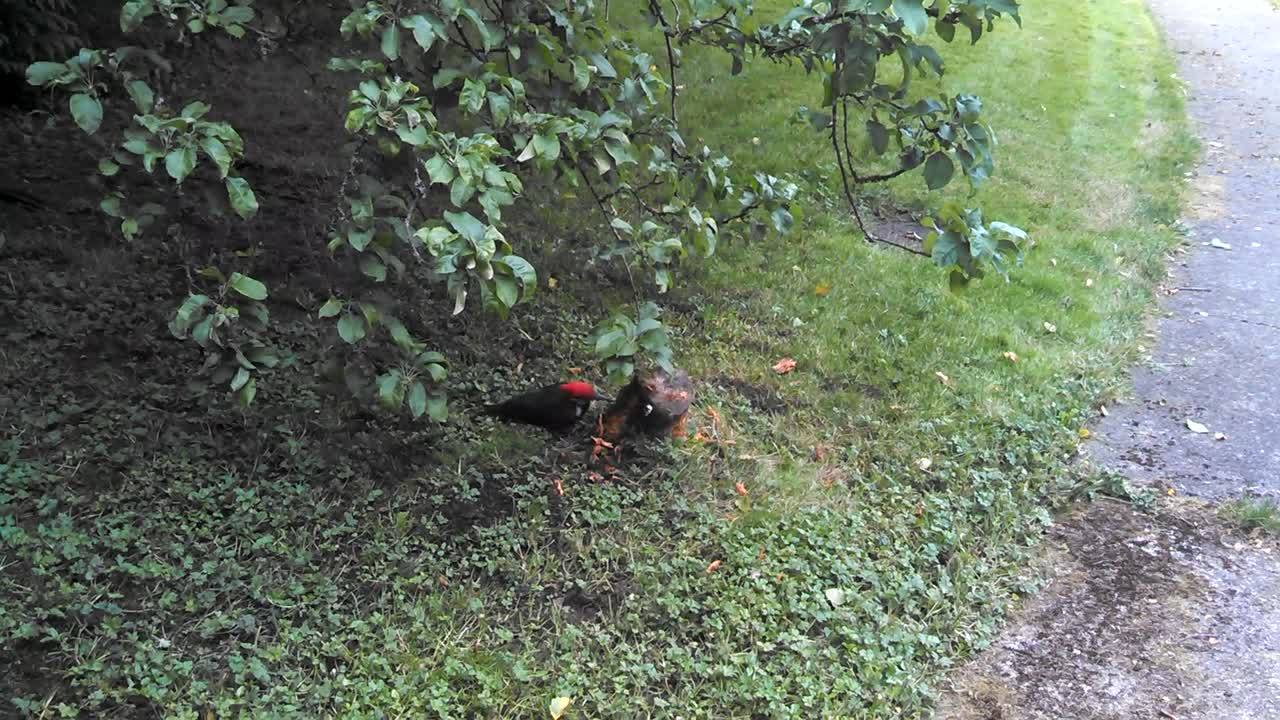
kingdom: Animalia
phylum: Chordata
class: Aves
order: Piciformes
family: Picidae
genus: Dryocopus
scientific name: Dryocopus pileatus
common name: Pileated woodpecker
